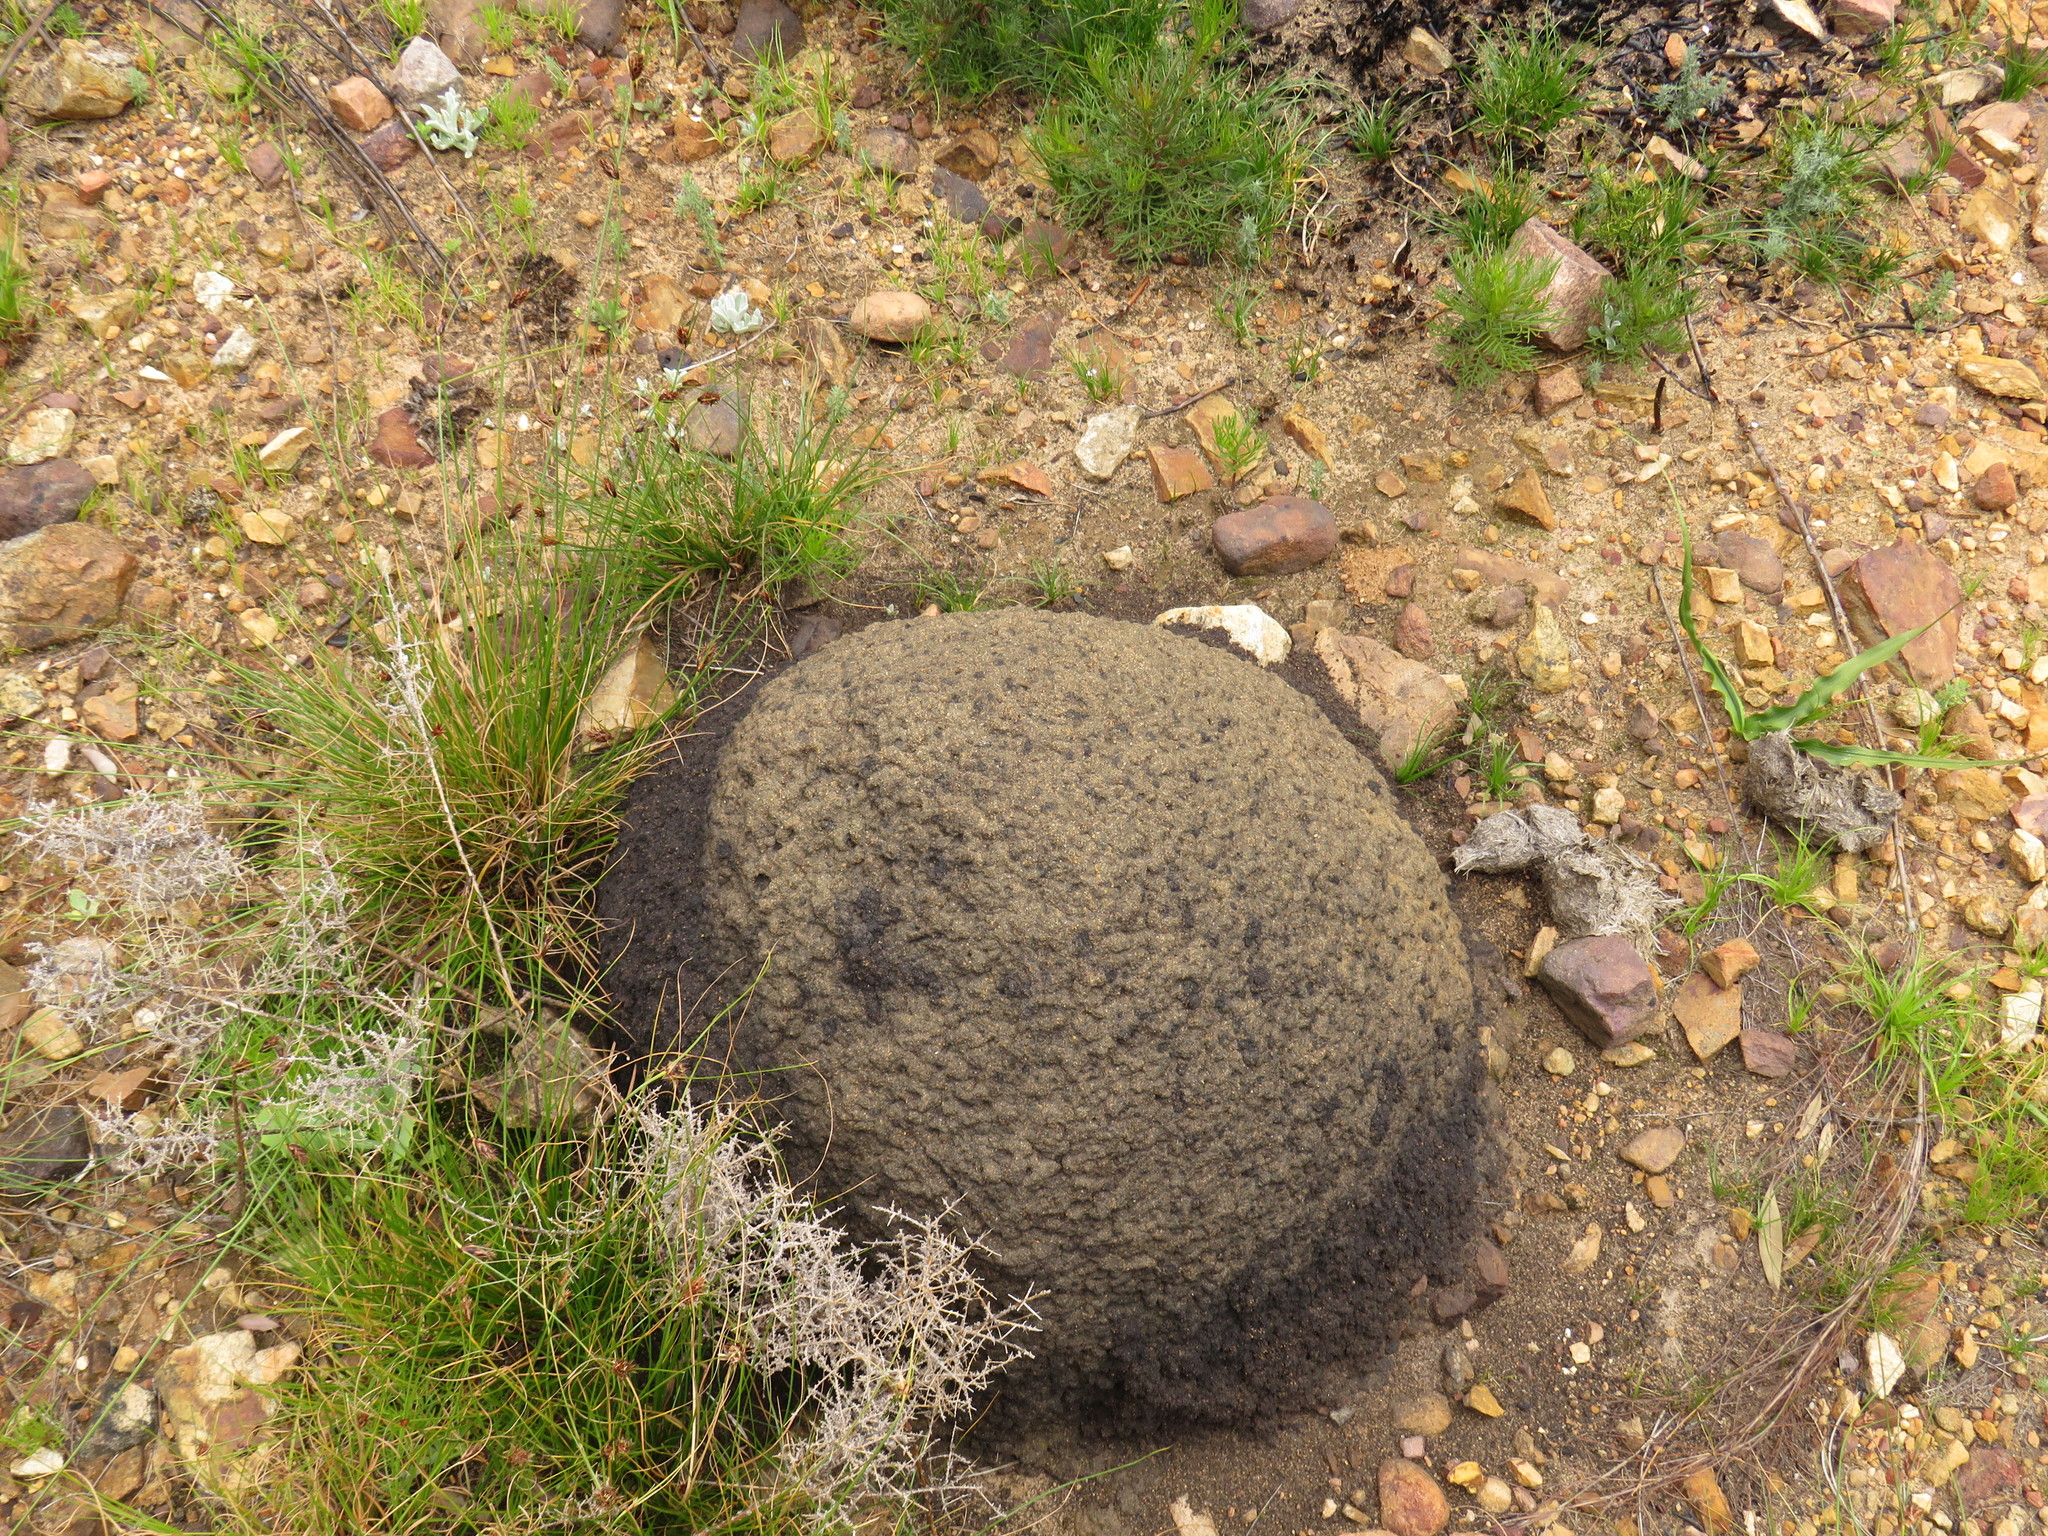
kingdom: Animalia
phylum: Arthropoda
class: Insecta
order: Blattodea
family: Termitidae
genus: Amitermes
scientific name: Amitermes hastatus
